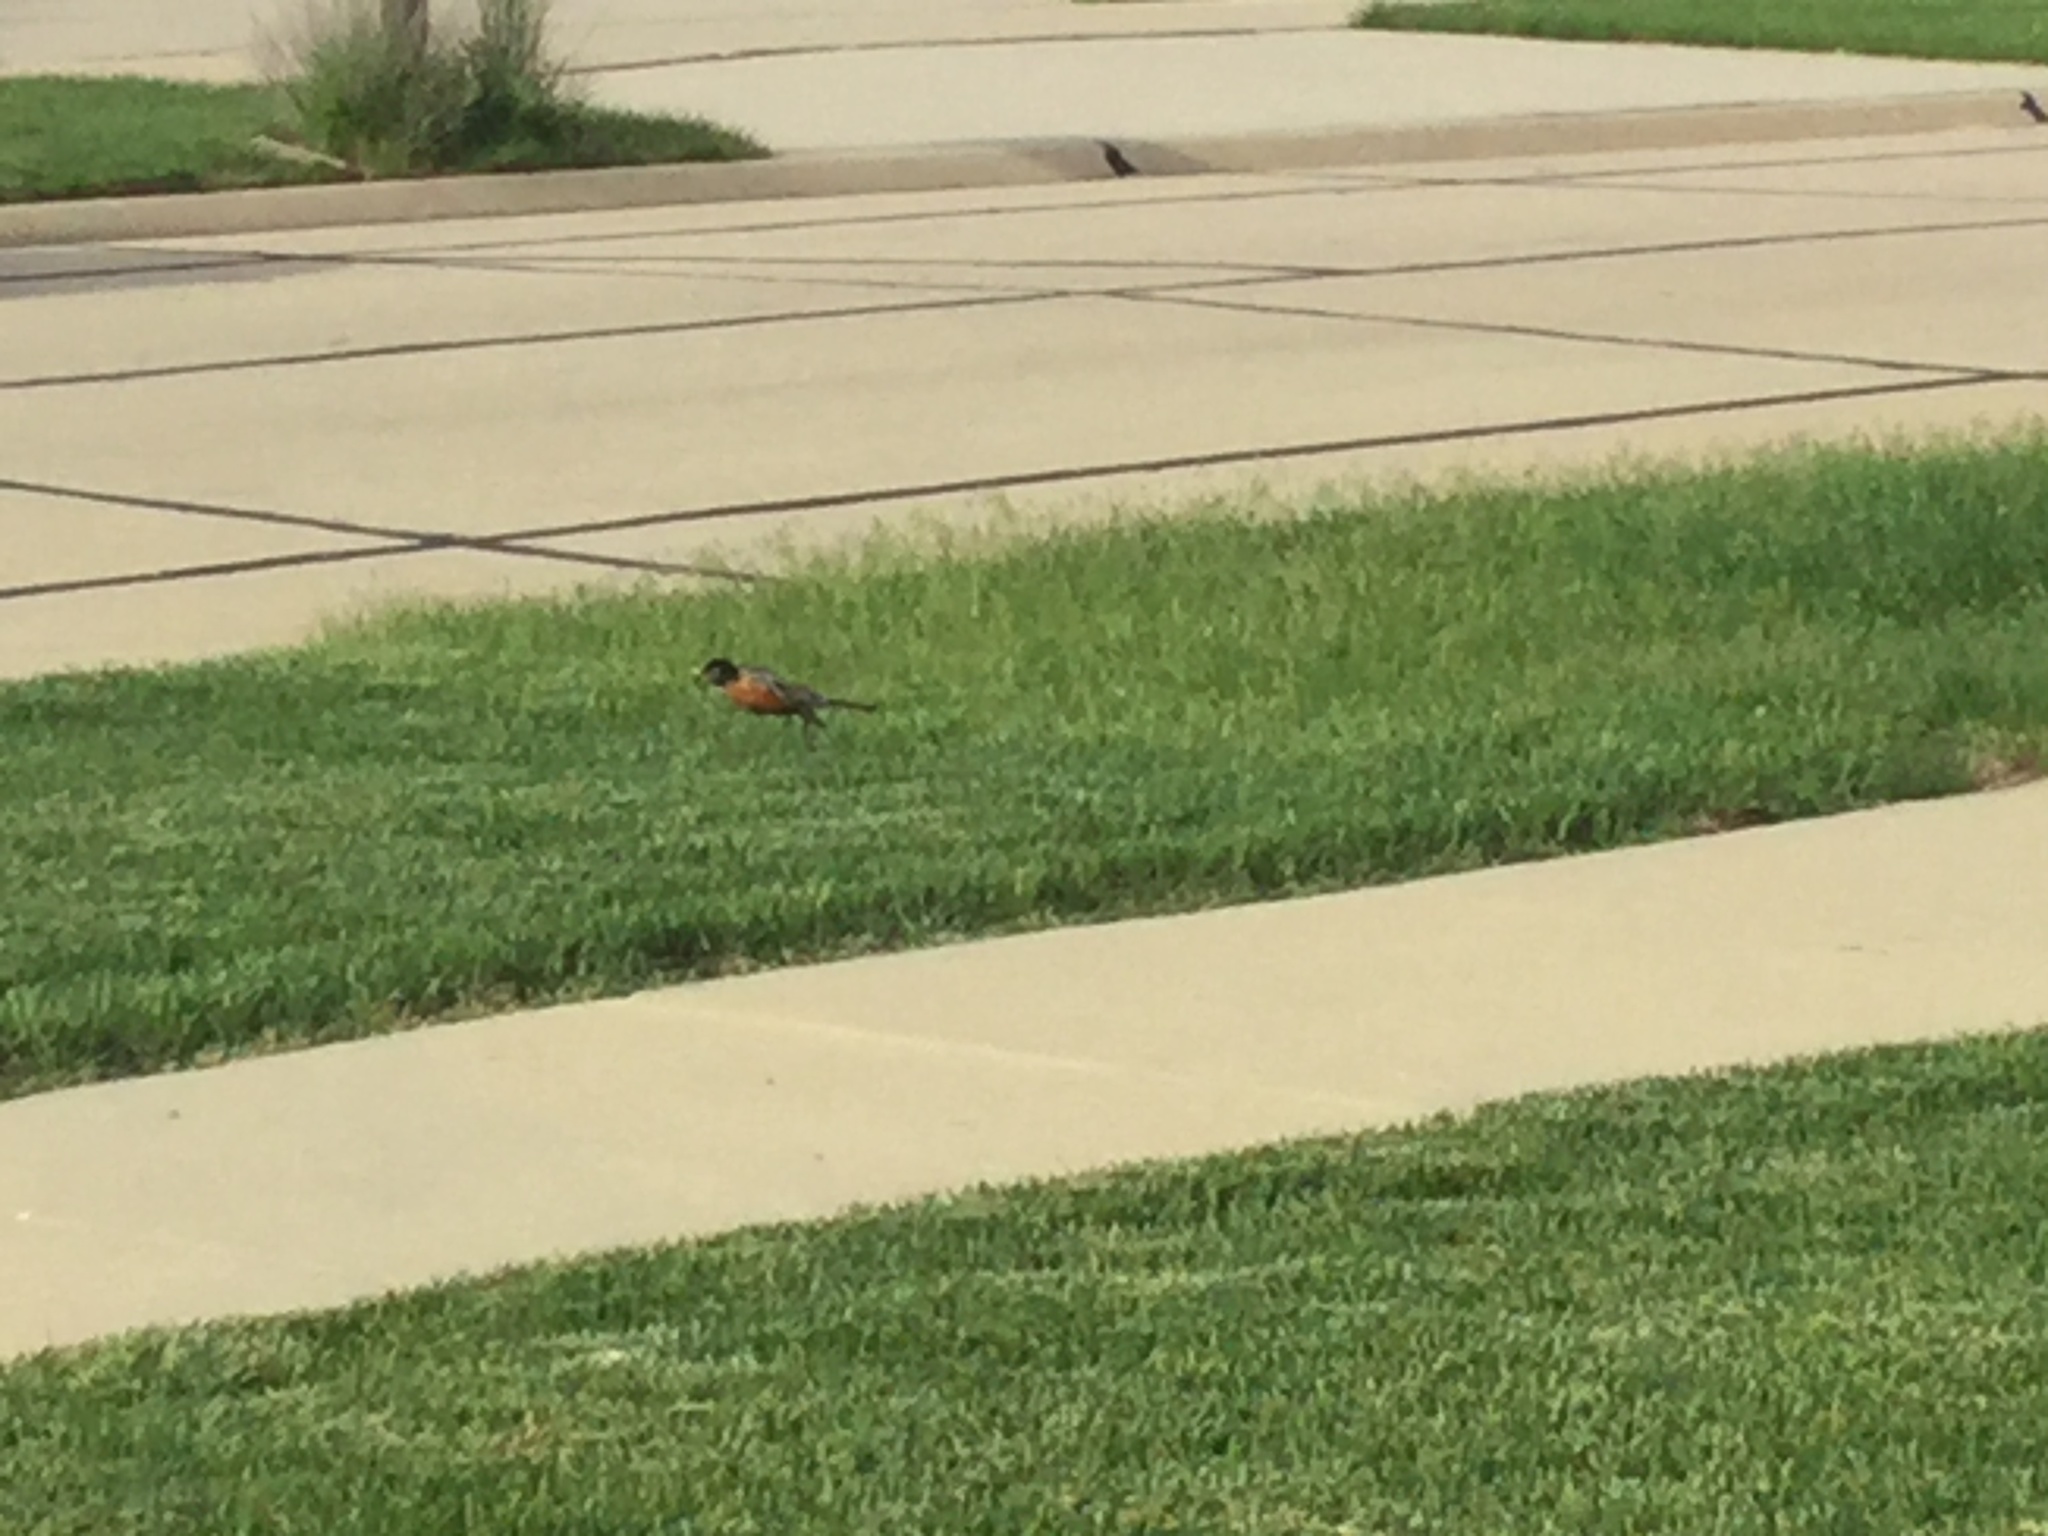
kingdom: Animalia
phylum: Chordata
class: Aves
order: Passeriformes
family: Turdidae
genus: Turdus
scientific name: Turdus migratorius
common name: American robin
